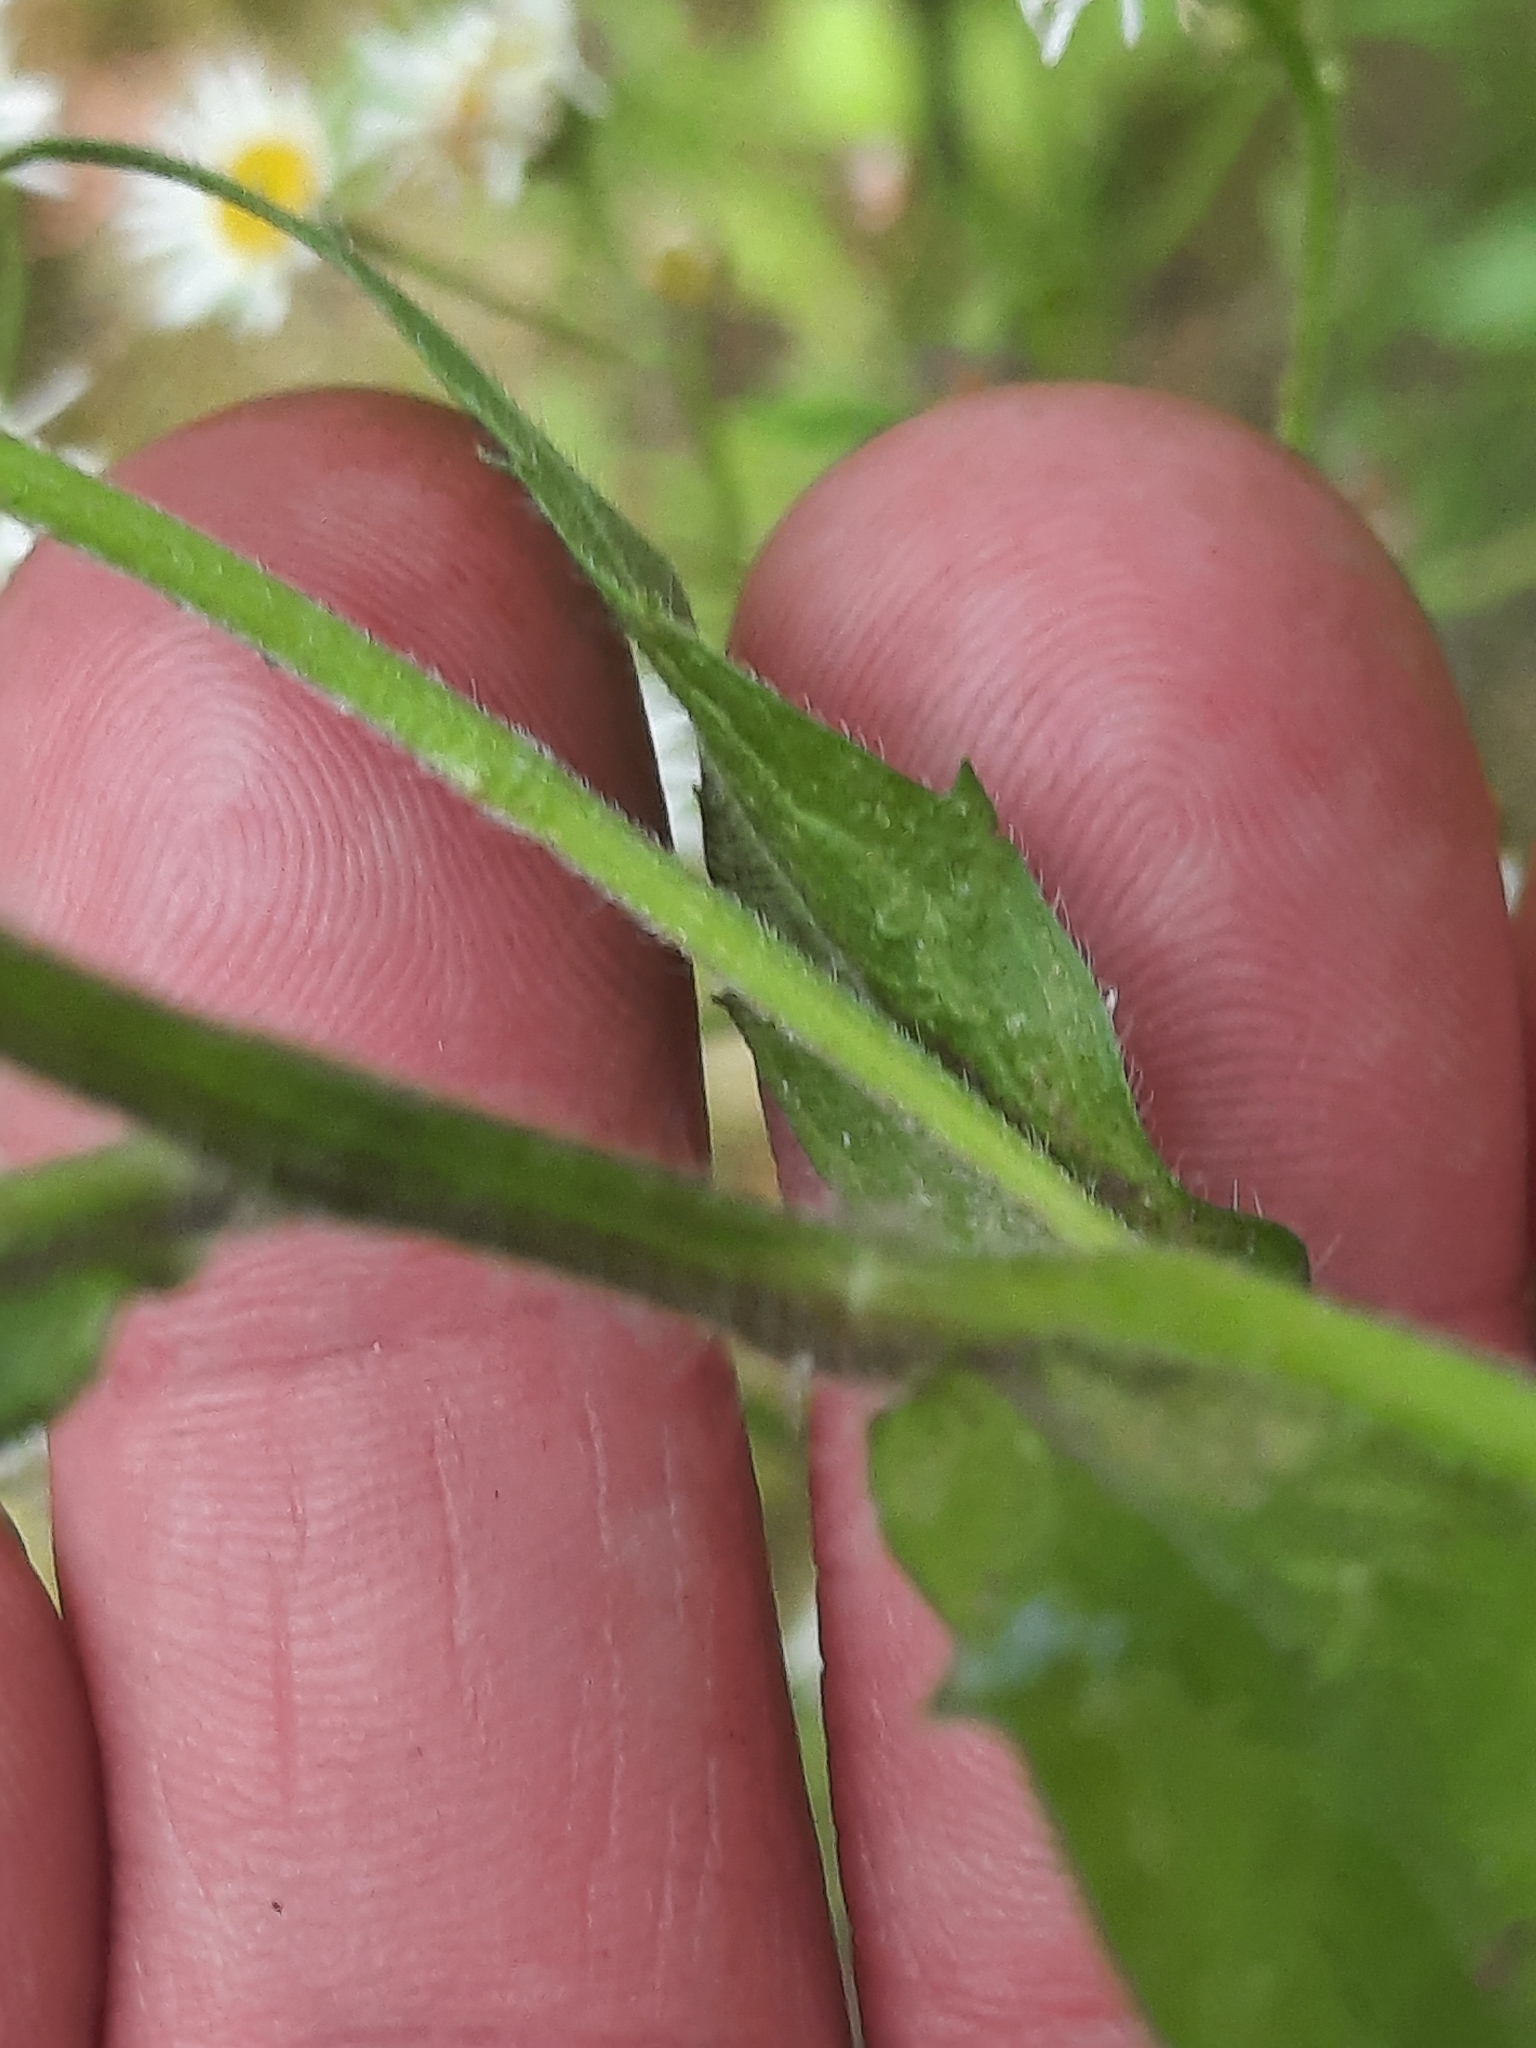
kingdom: Plantae
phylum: Tracheophyta
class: Magnoliopsida
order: Asterales
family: Asteraceae
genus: Erigeron
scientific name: Erigeron annuus
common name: Tall fleabane
